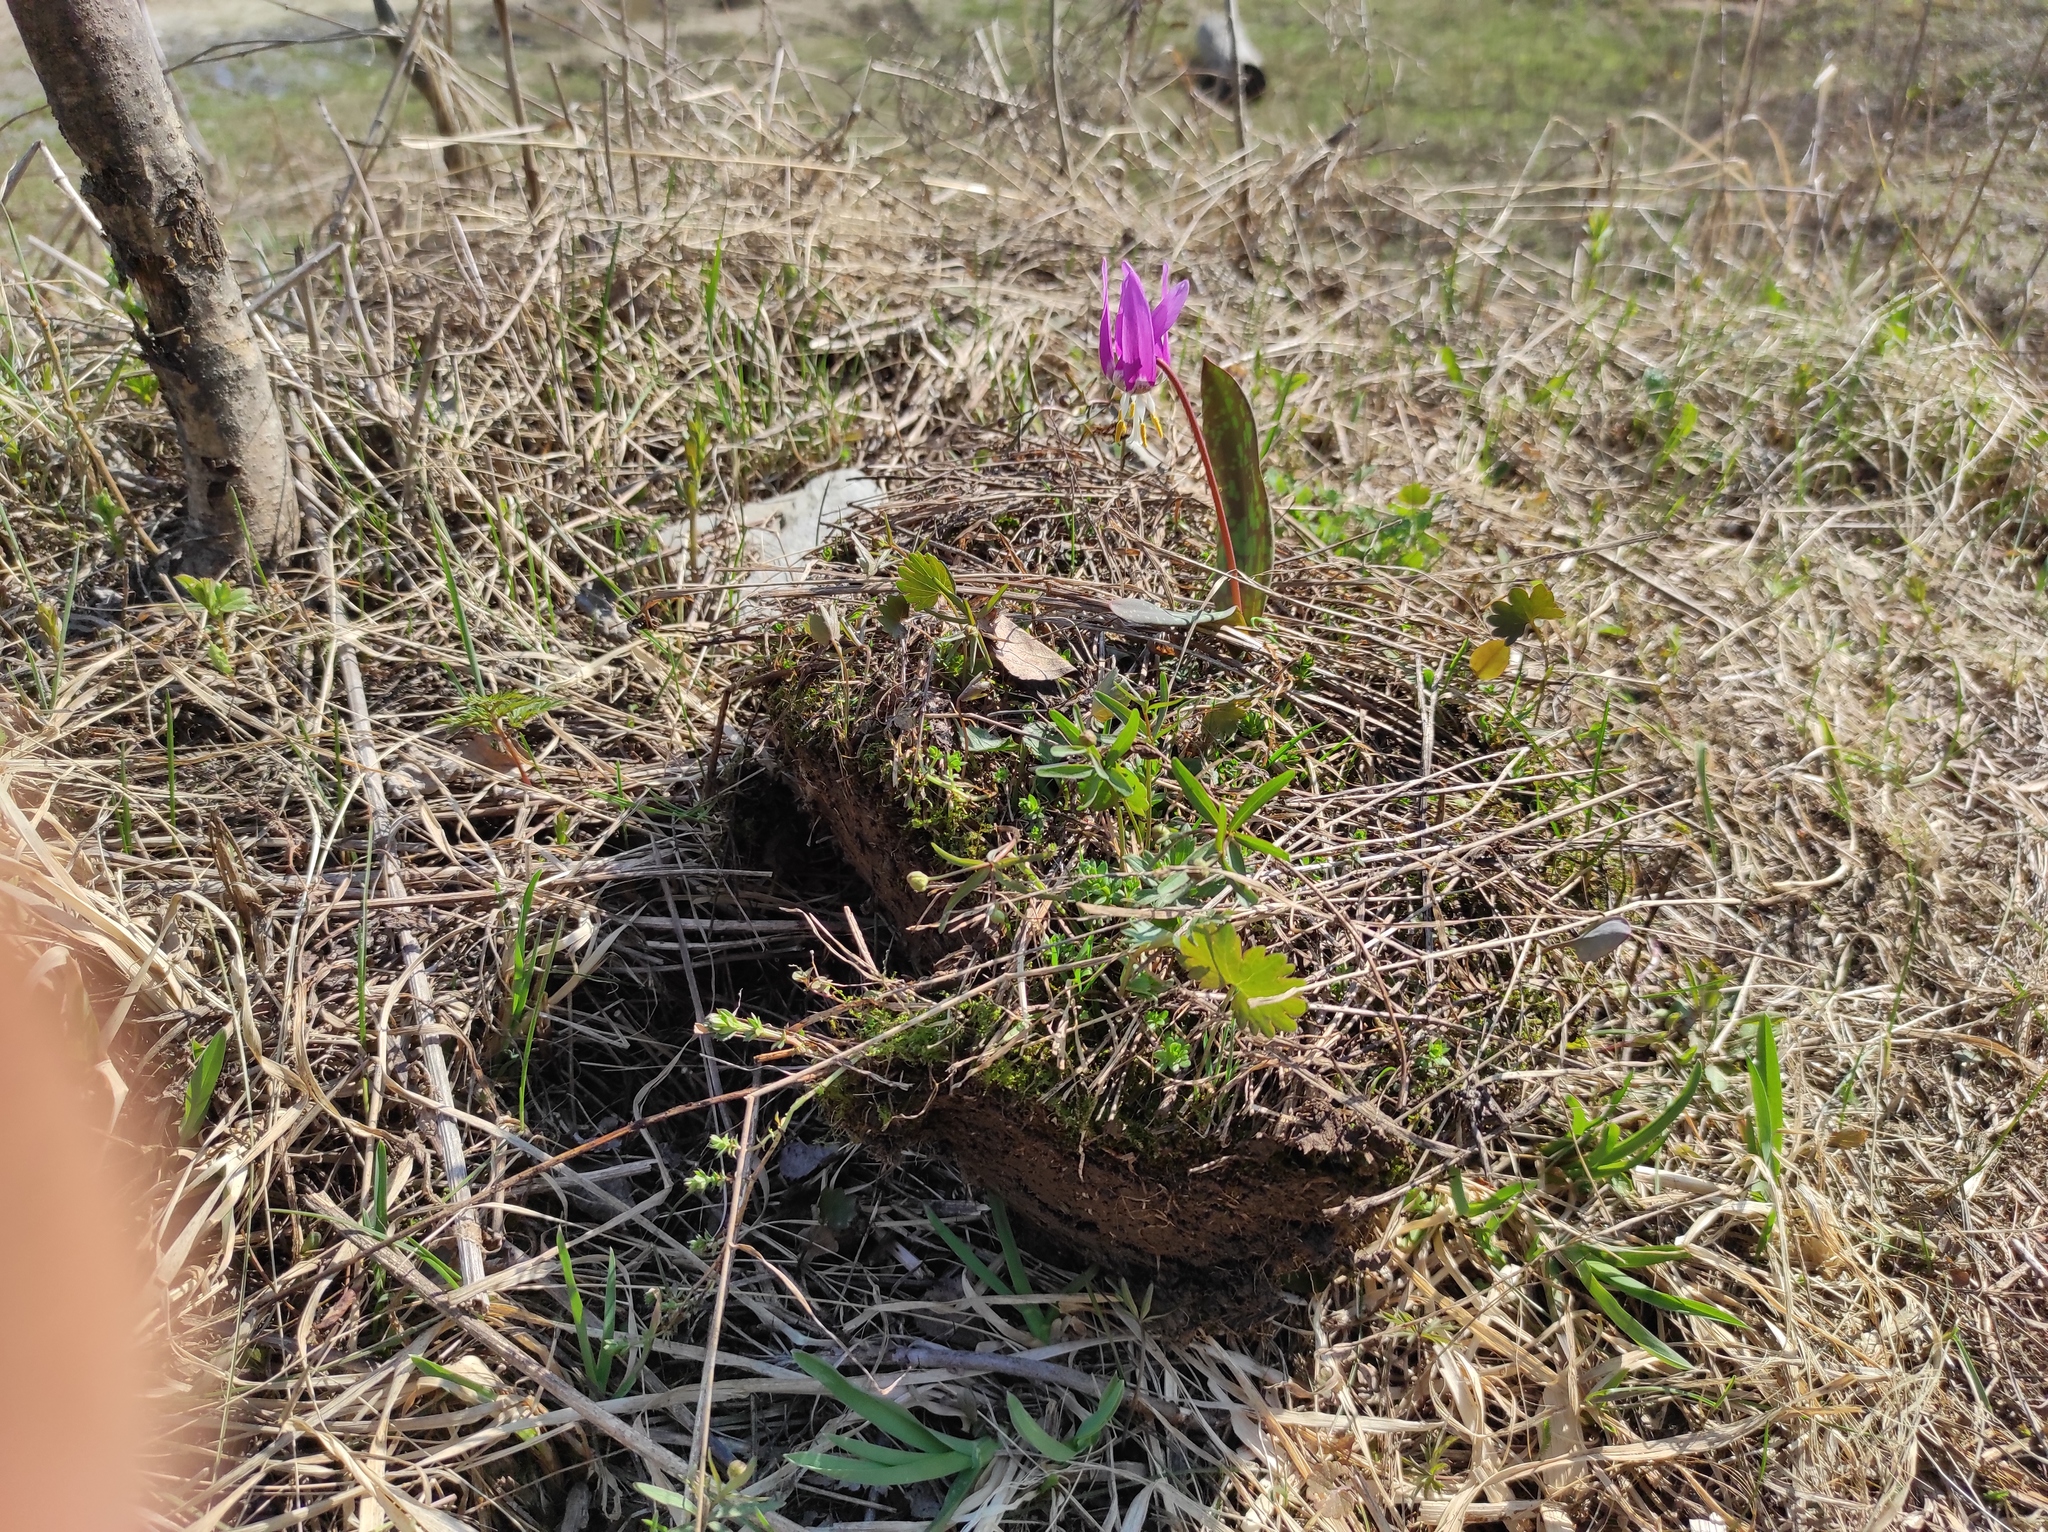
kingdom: Plantae
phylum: Tracheophyta
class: Liliopsida
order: Liliales
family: Liliaceae
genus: Erythronium
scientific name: Erythronium sibiricum
